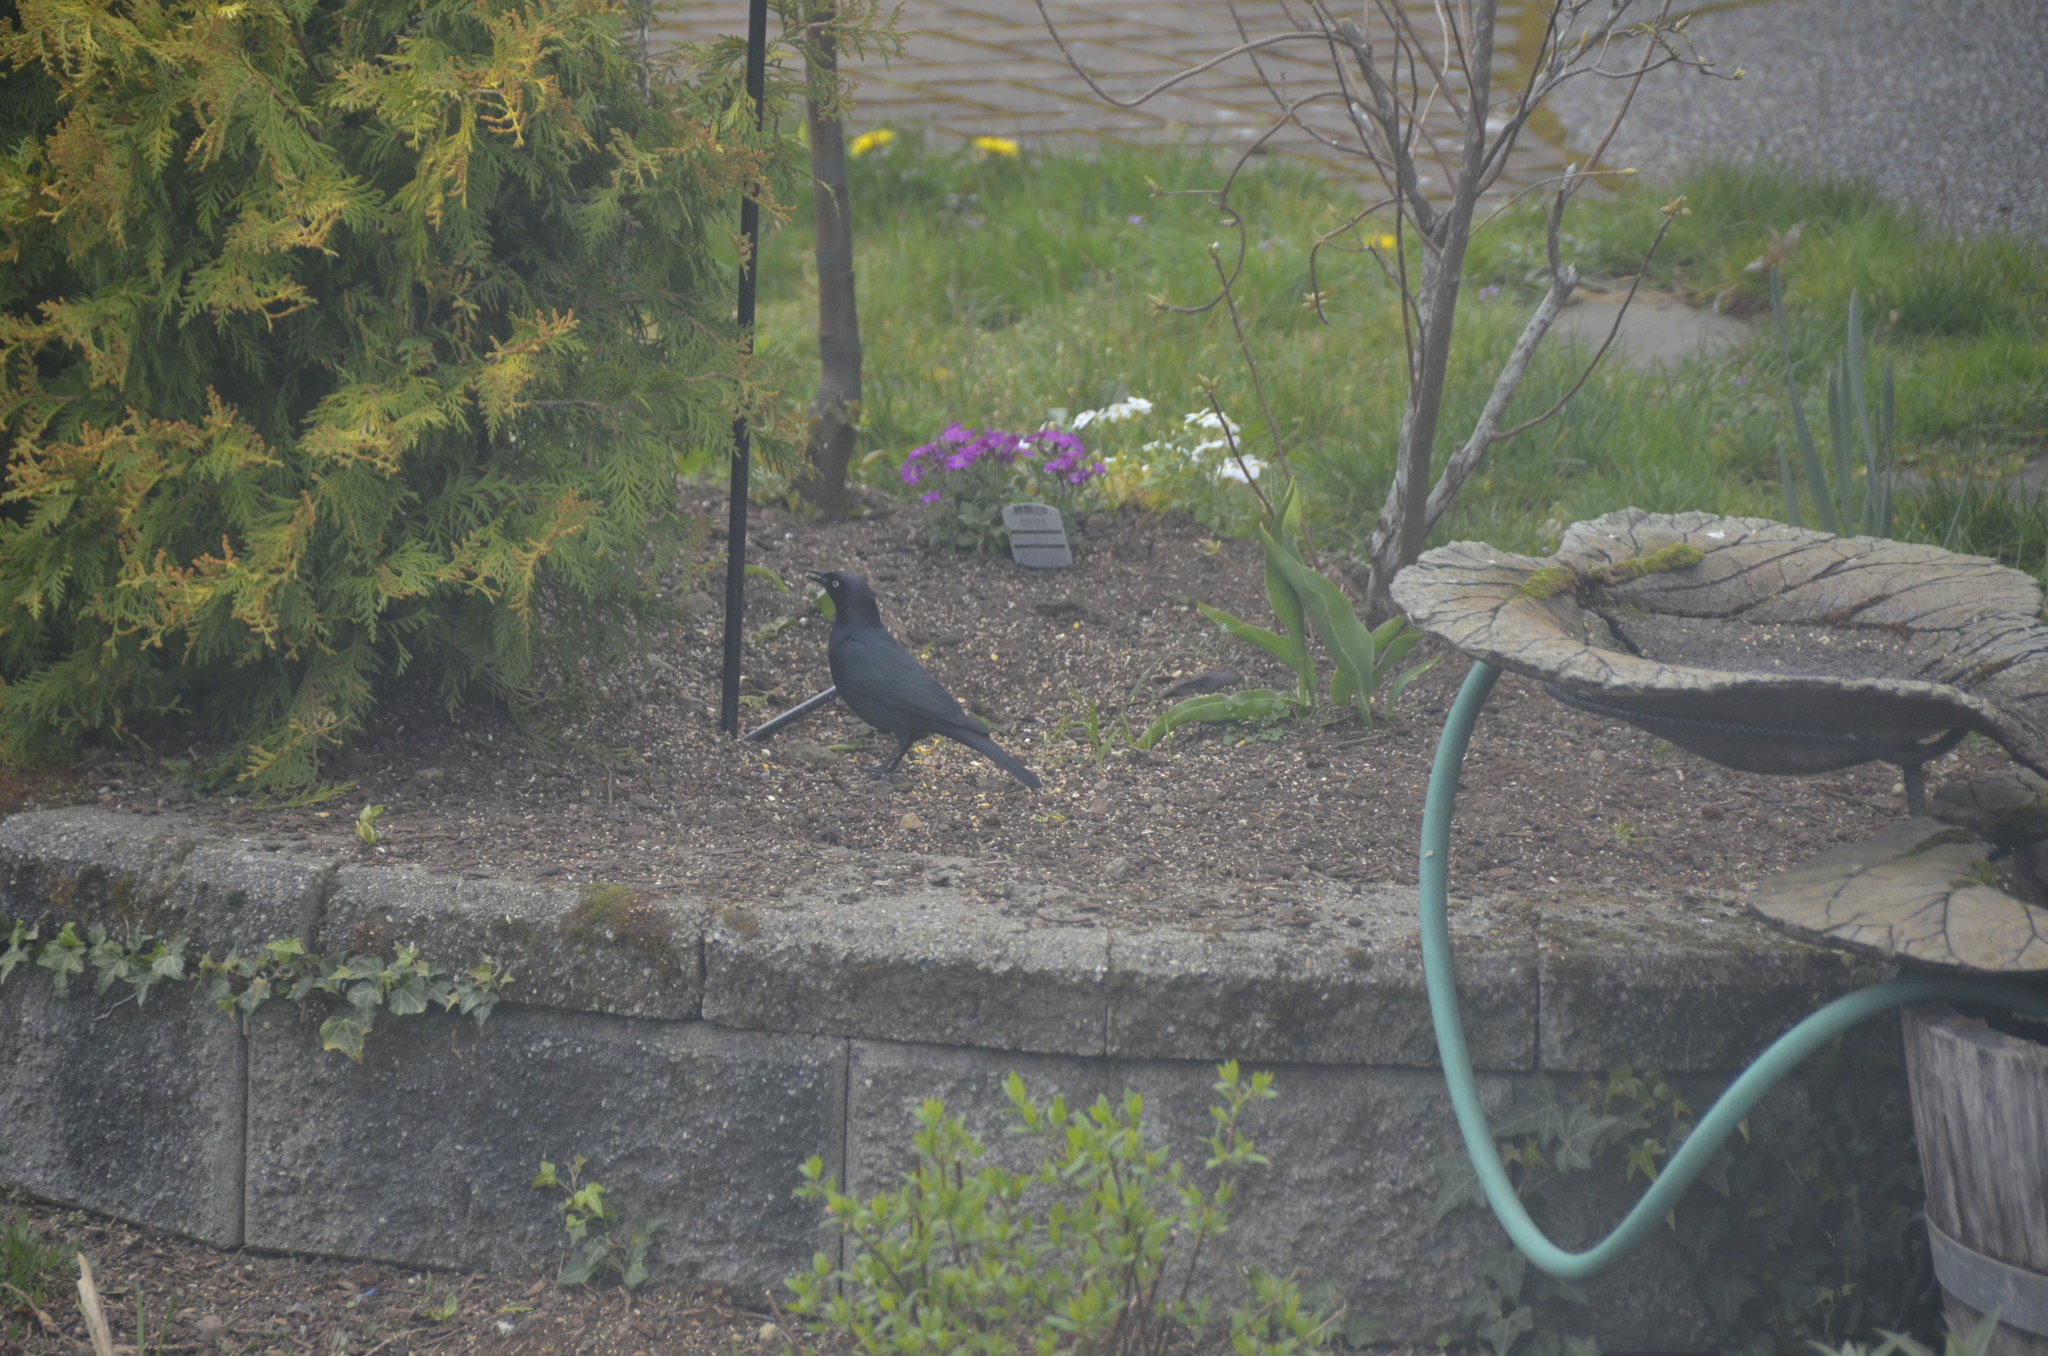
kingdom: Animalia
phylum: Chordata
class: Aves
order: Passeriformes
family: Icteridae
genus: Euphagus
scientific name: Euphagus cyanocephalus
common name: Brewer's blackbird
